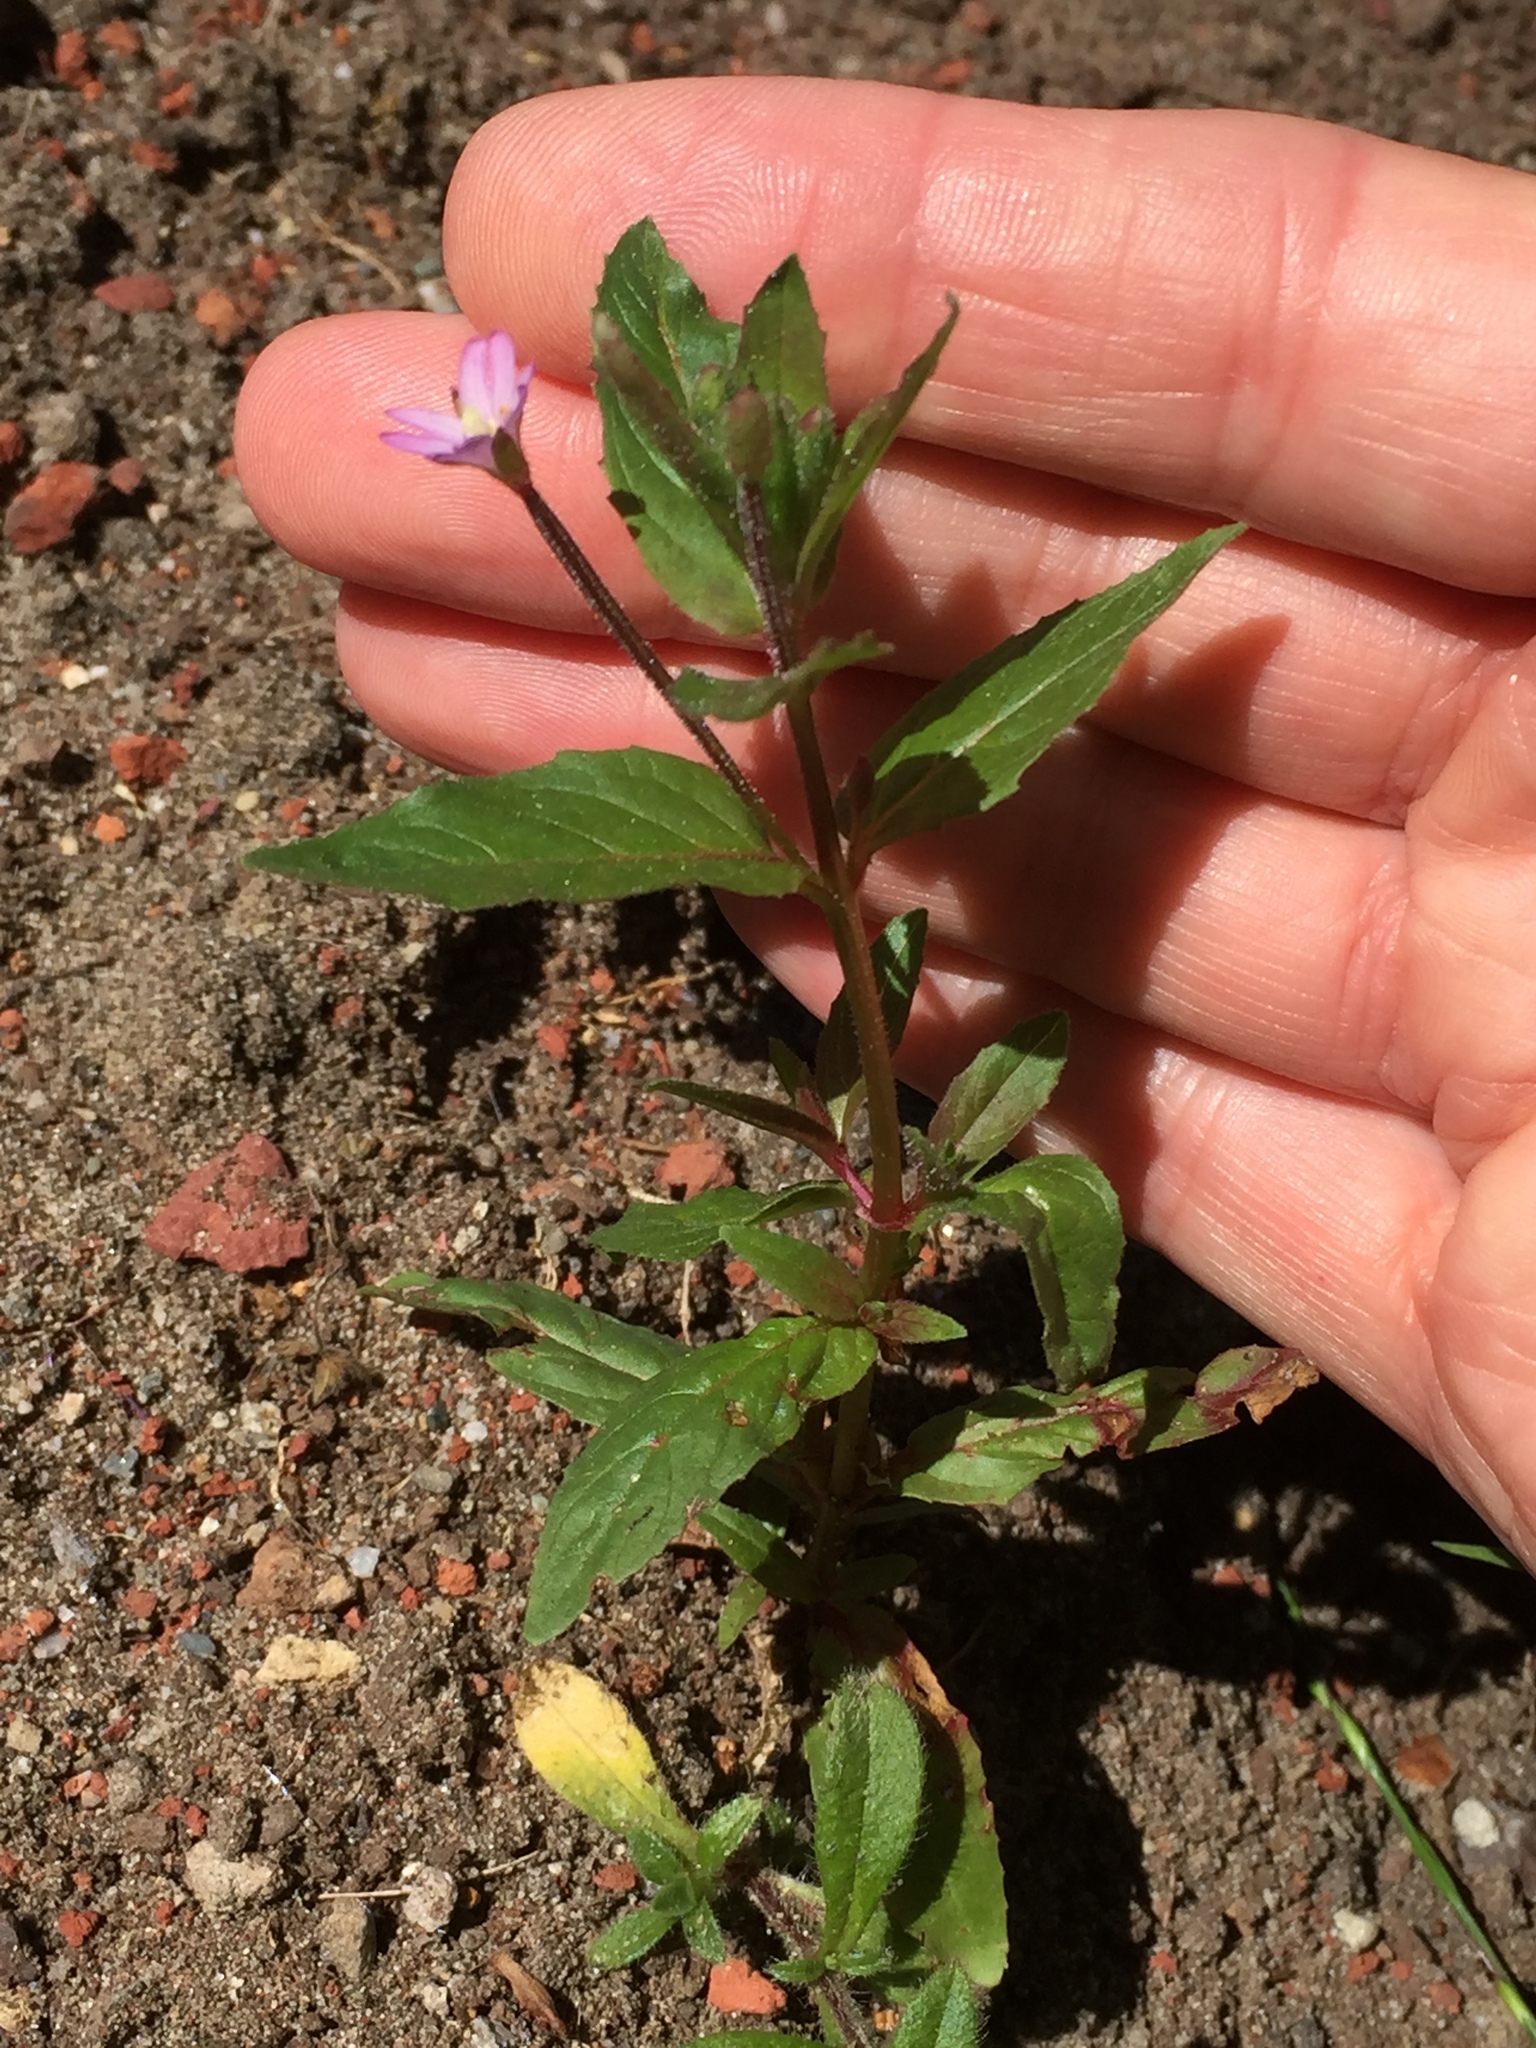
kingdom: Plantae
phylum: Tracheophyta
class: Magnoliopsida
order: Myrtales
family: Onagraceae
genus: Epilobium
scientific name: Epilobium ciliatum
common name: American willowherb
